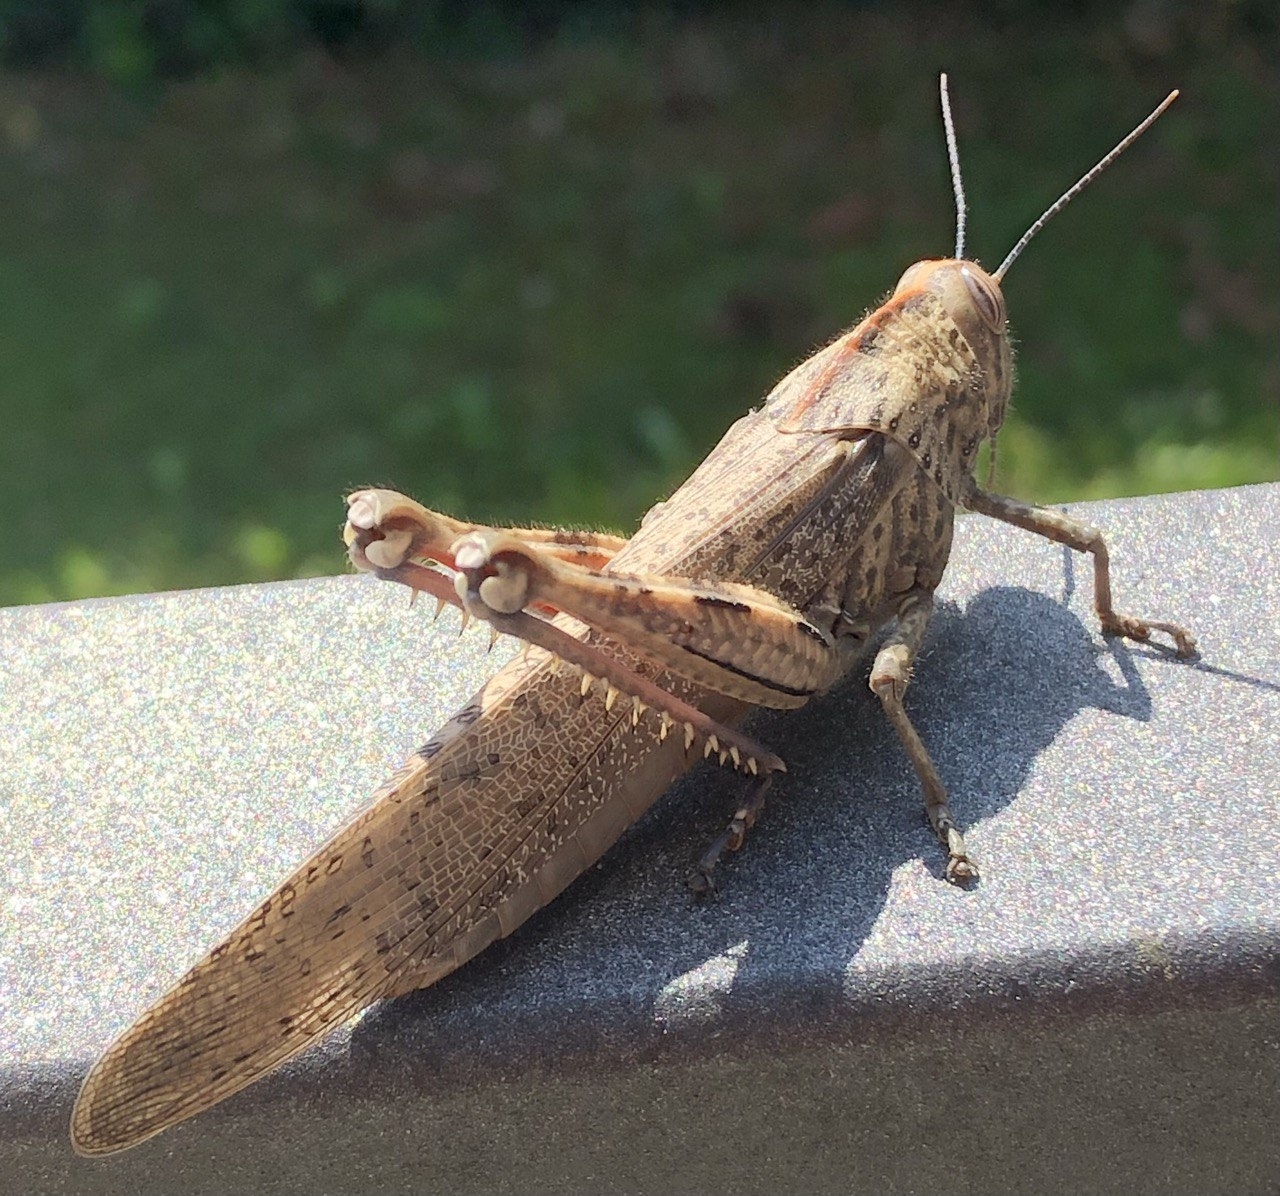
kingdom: Animalia
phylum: Arthropoda
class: Insecta
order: Orthoptera
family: Acrididae
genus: Anacridium
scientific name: Anacridium aegyptium
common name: Egyptian grasshopper
